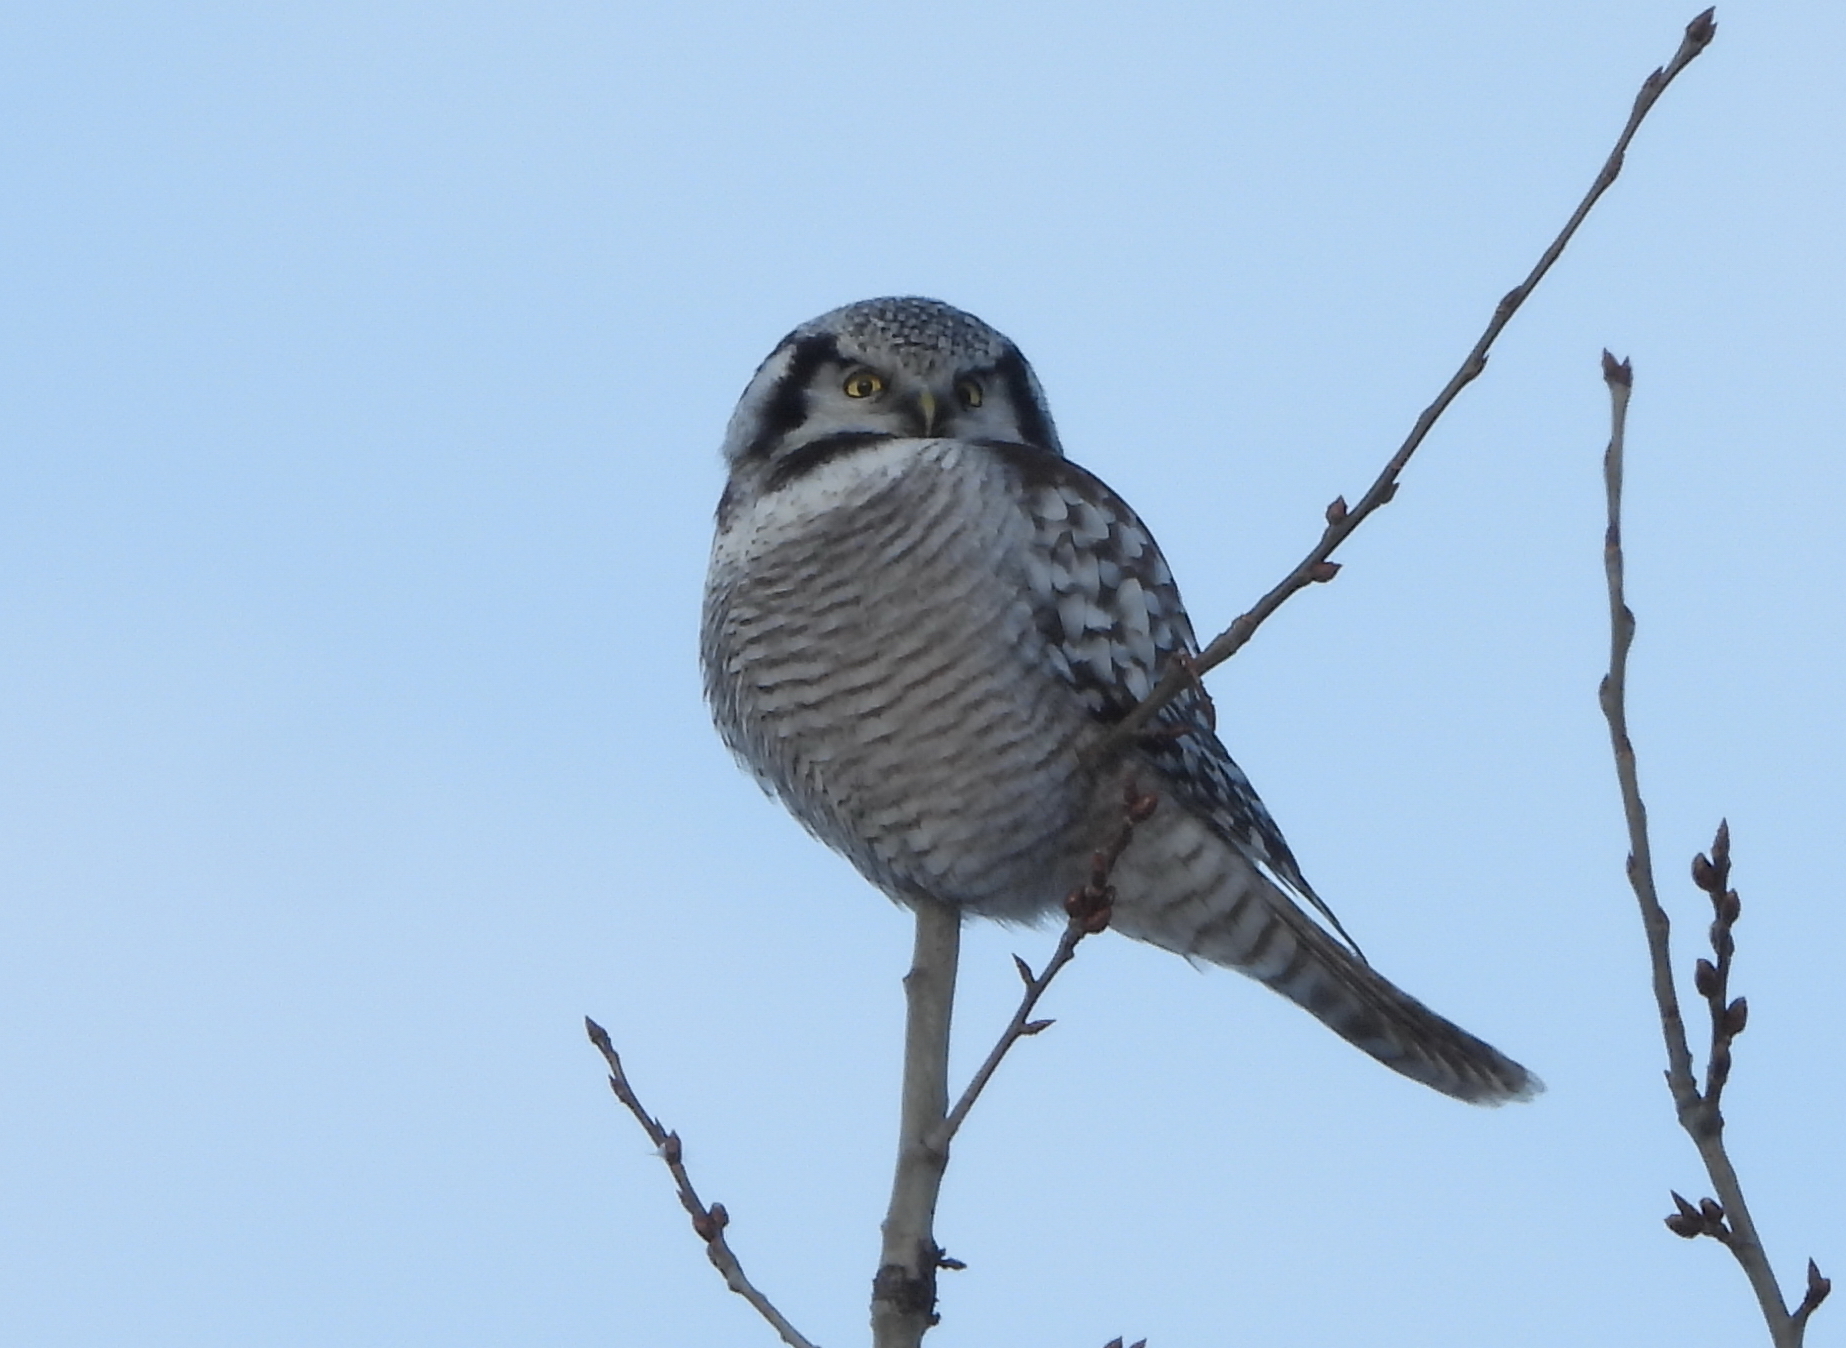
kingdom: Animalia
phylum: Chordata
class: Aves
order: Strigiformes
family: Strigidae
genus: Surnia
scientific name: Surnia ulula
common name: Northern hawk-owl
